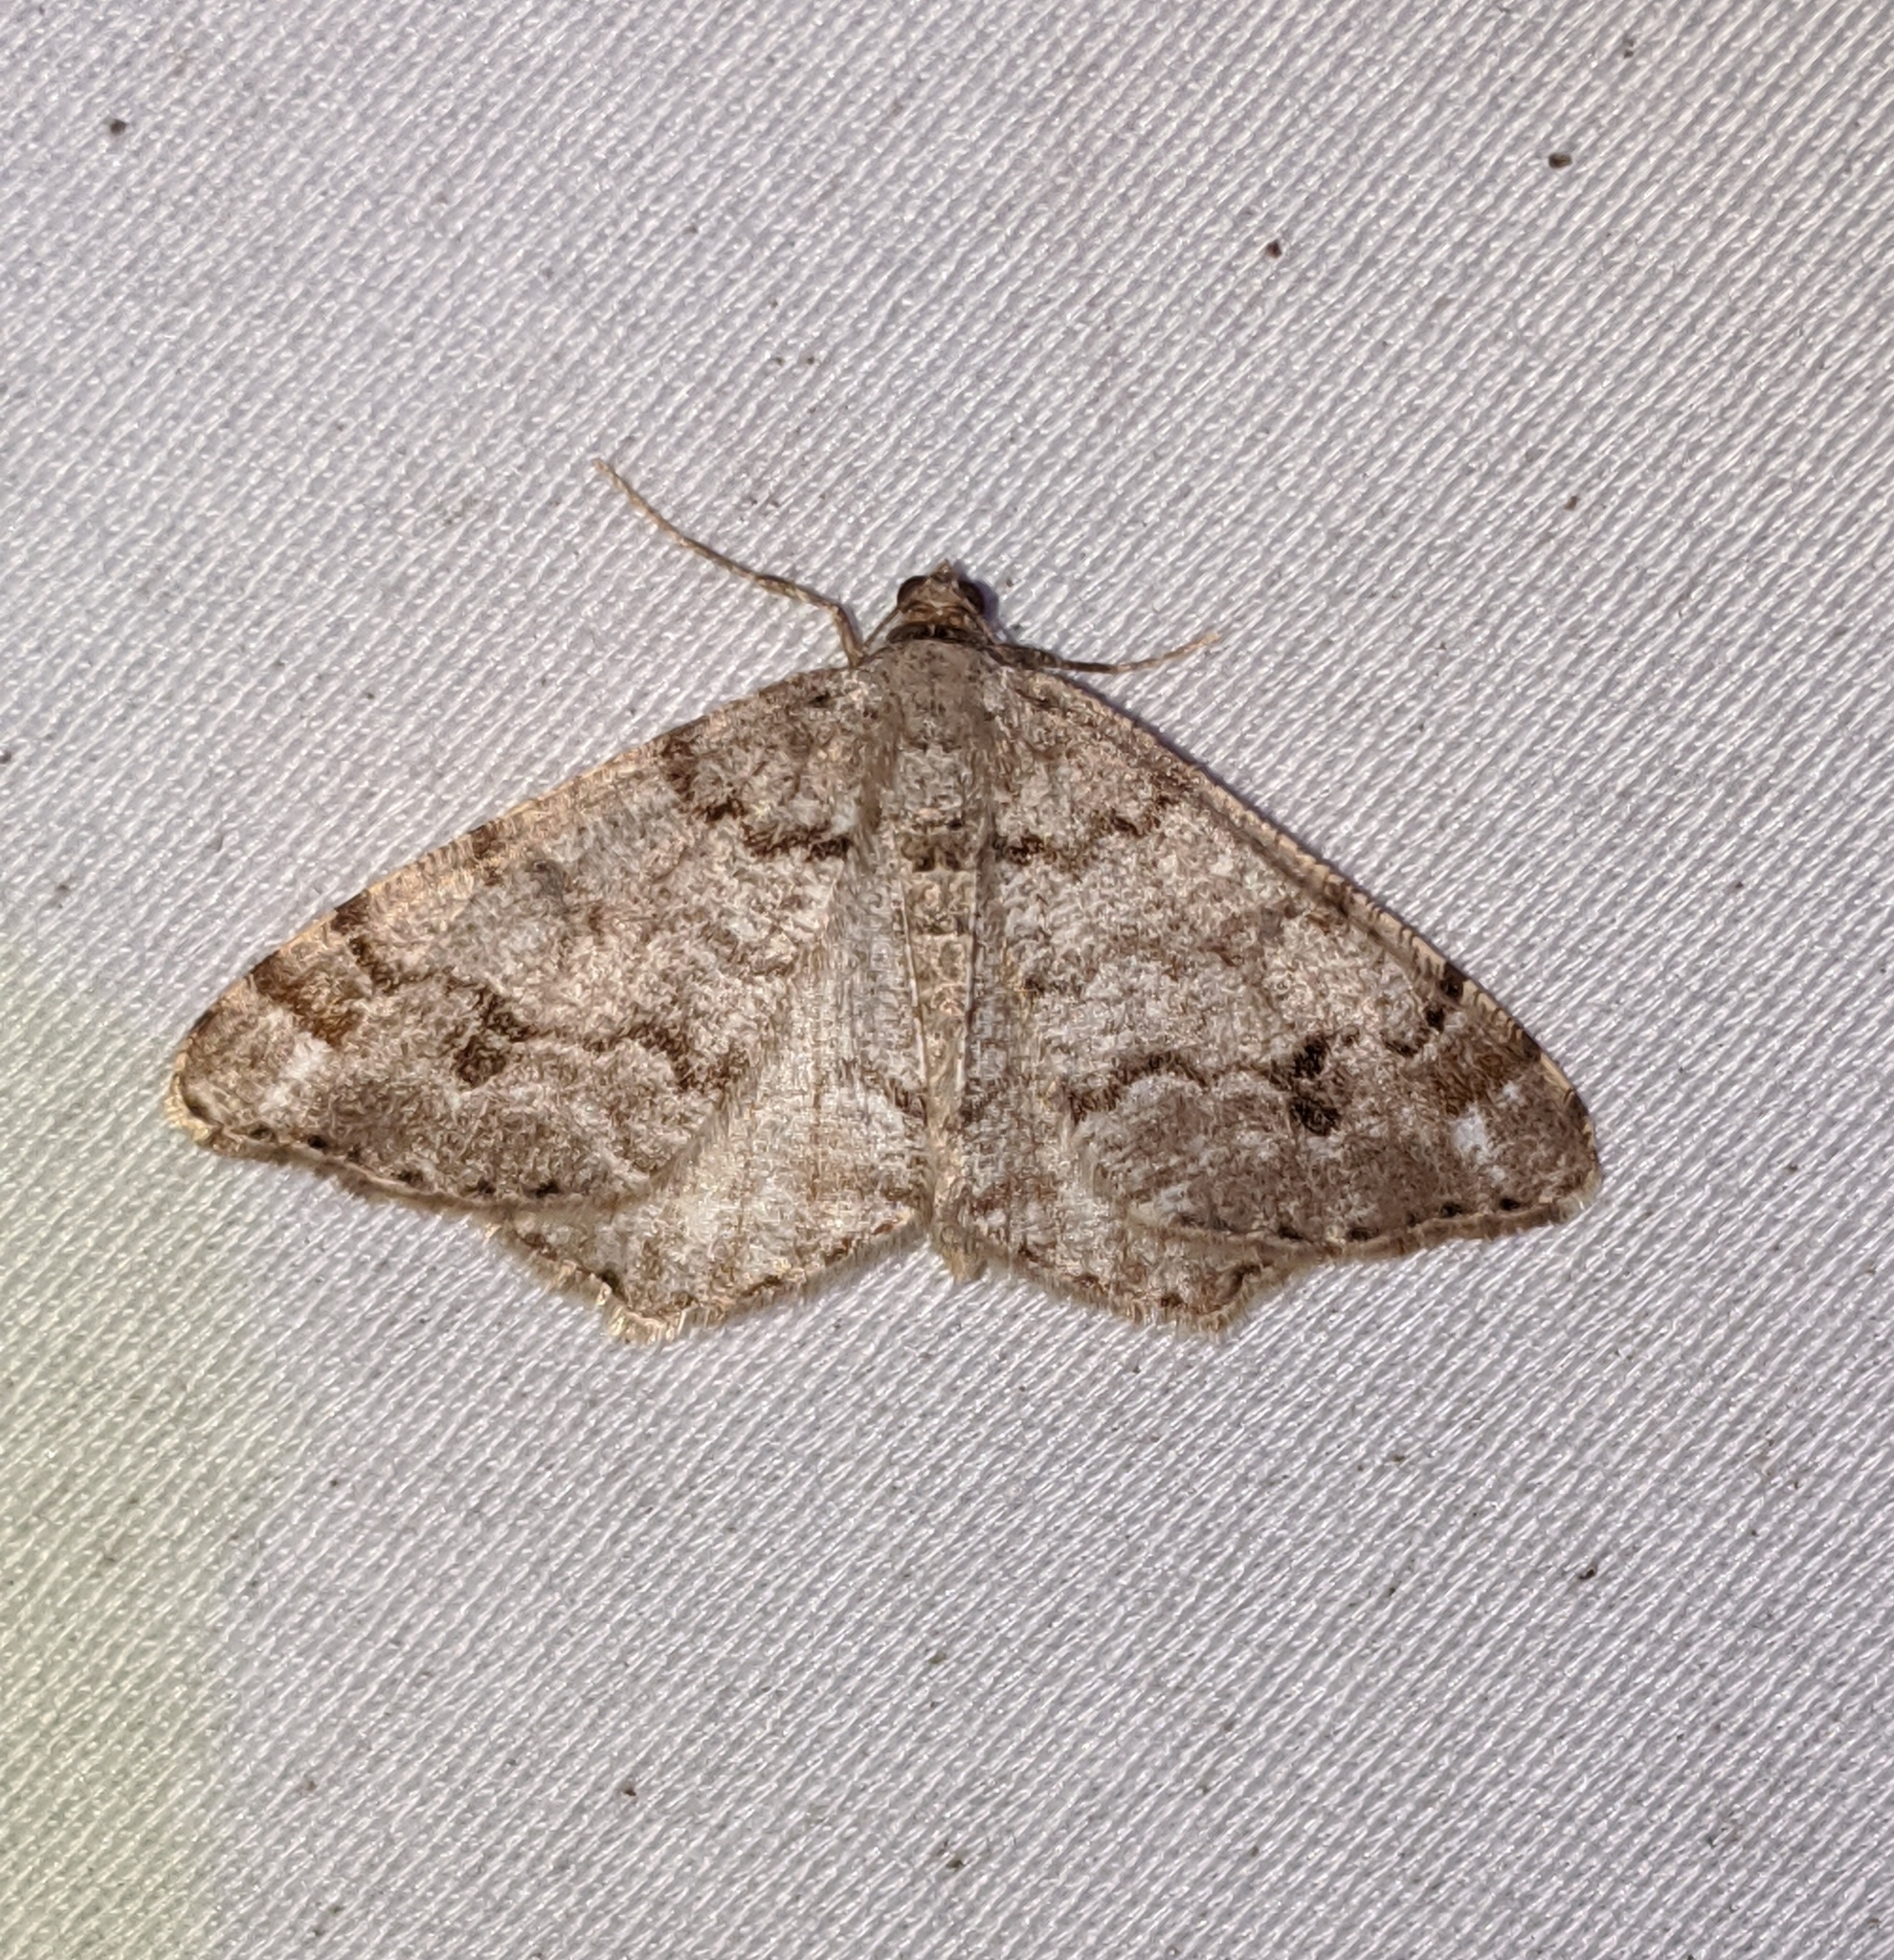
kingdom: Animalia
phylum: Arthropoda
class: Insecta
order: Lepidoptera
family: Geometridae
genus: Macaria
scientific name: Macaria signaria
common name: Dusky peacock
